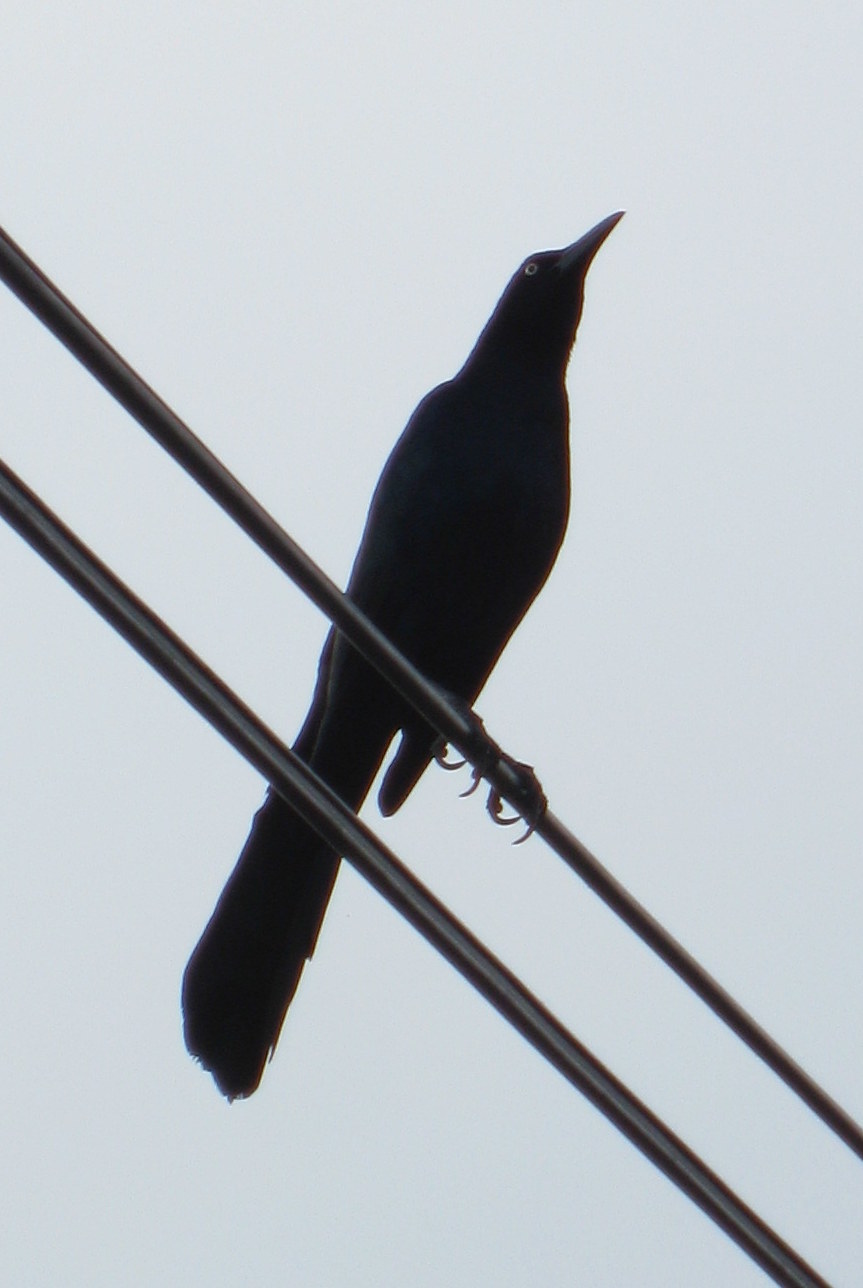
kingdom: Animalia
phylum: Chordata
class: Aves
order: Passeriformes
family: Icteridae
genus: Quiscalus
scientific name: Quiscalus mexicanus
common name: Great-tailed grackle
